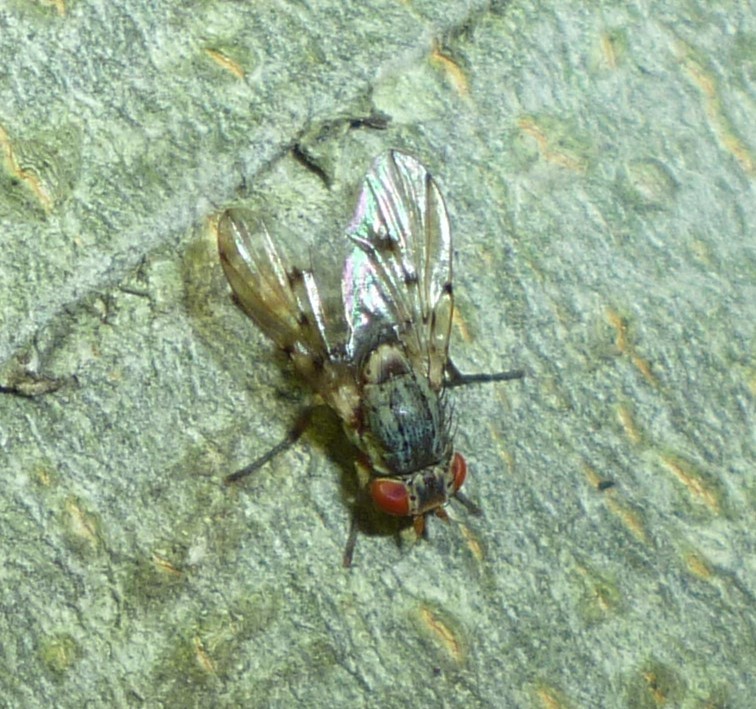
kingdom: Animalia
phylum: Arthropoda
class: Insecta
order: Diptera
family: Odiniidae
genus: Odinia
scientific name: Odinia conspicua
